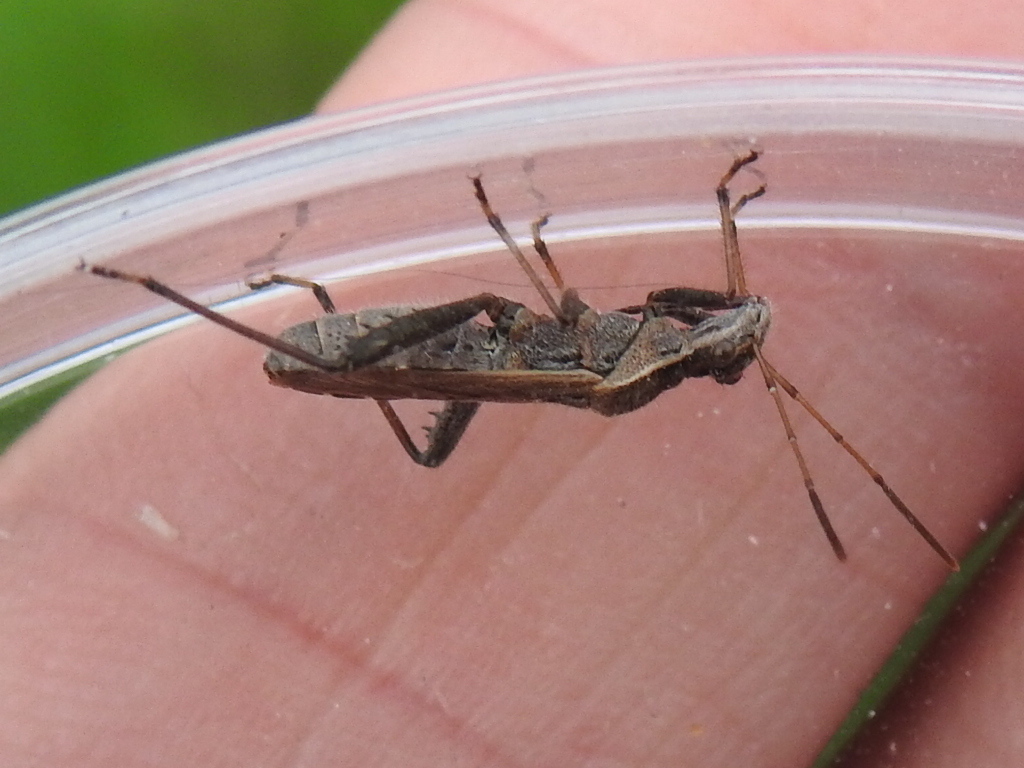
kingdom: Animalia
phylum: Arthropoda
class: Insecta
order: Hemiptera
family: Alydidae
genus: Alydus
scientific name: Alydus pilosulus
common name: Broad-headed bug
